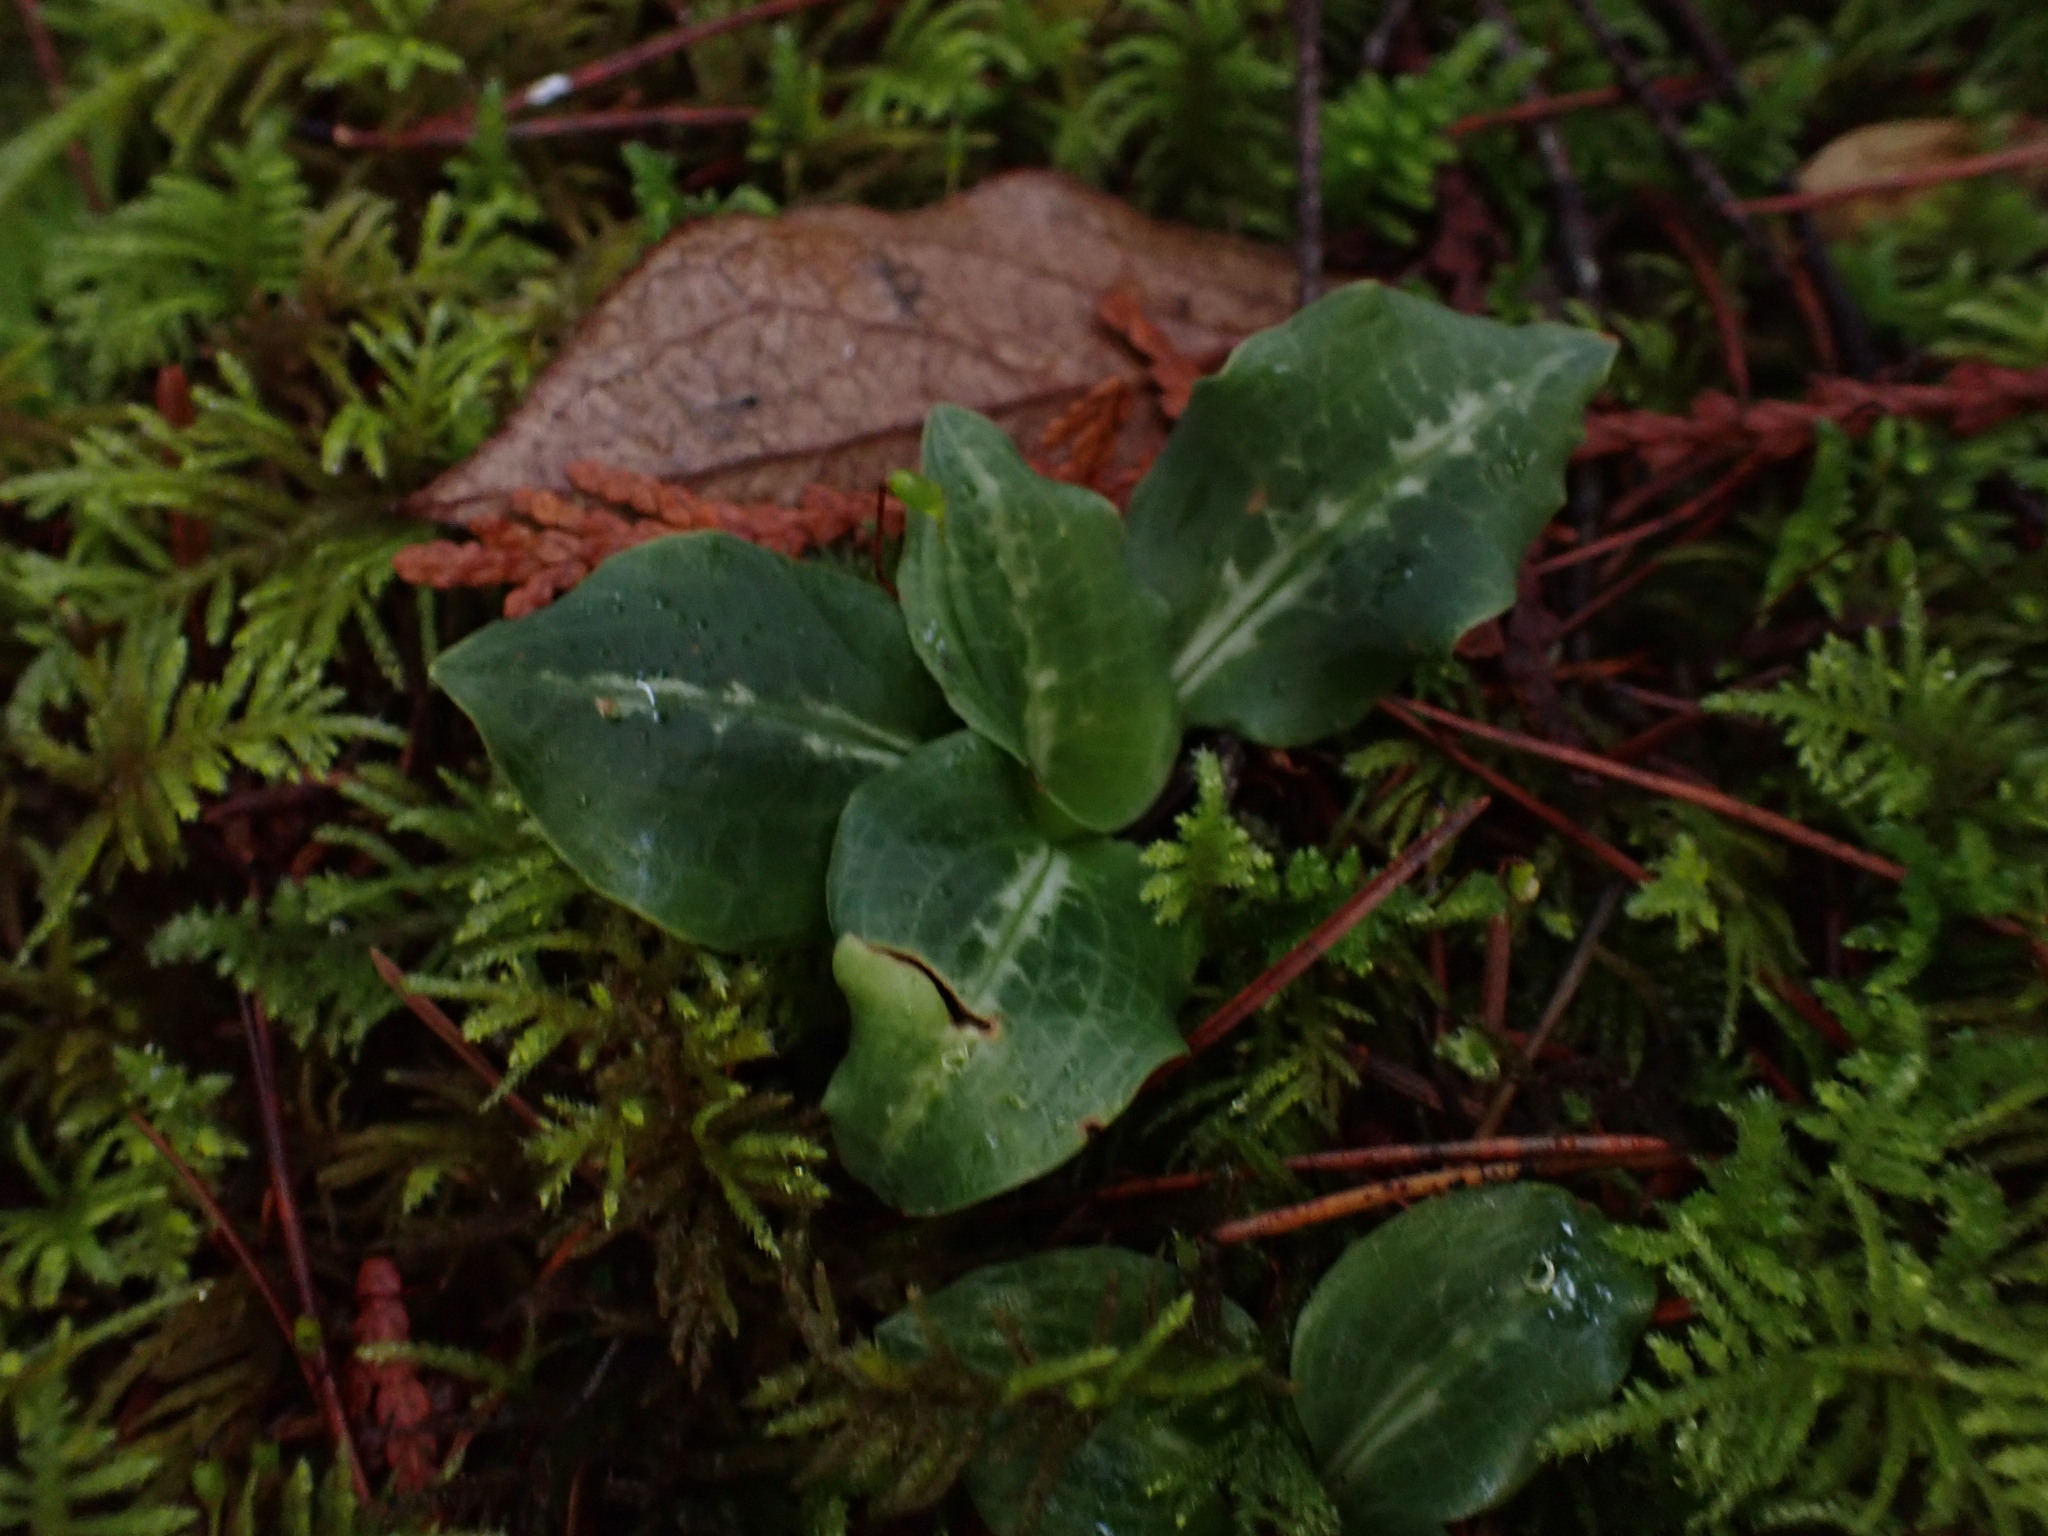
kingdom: Plantae
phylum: Tracheophyta
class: Liliopsida
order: Asparagales
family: Orchidaceae
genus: Goodyera
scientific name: Goodyera oblongifolia
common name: Giant rattlesnake-plantain
